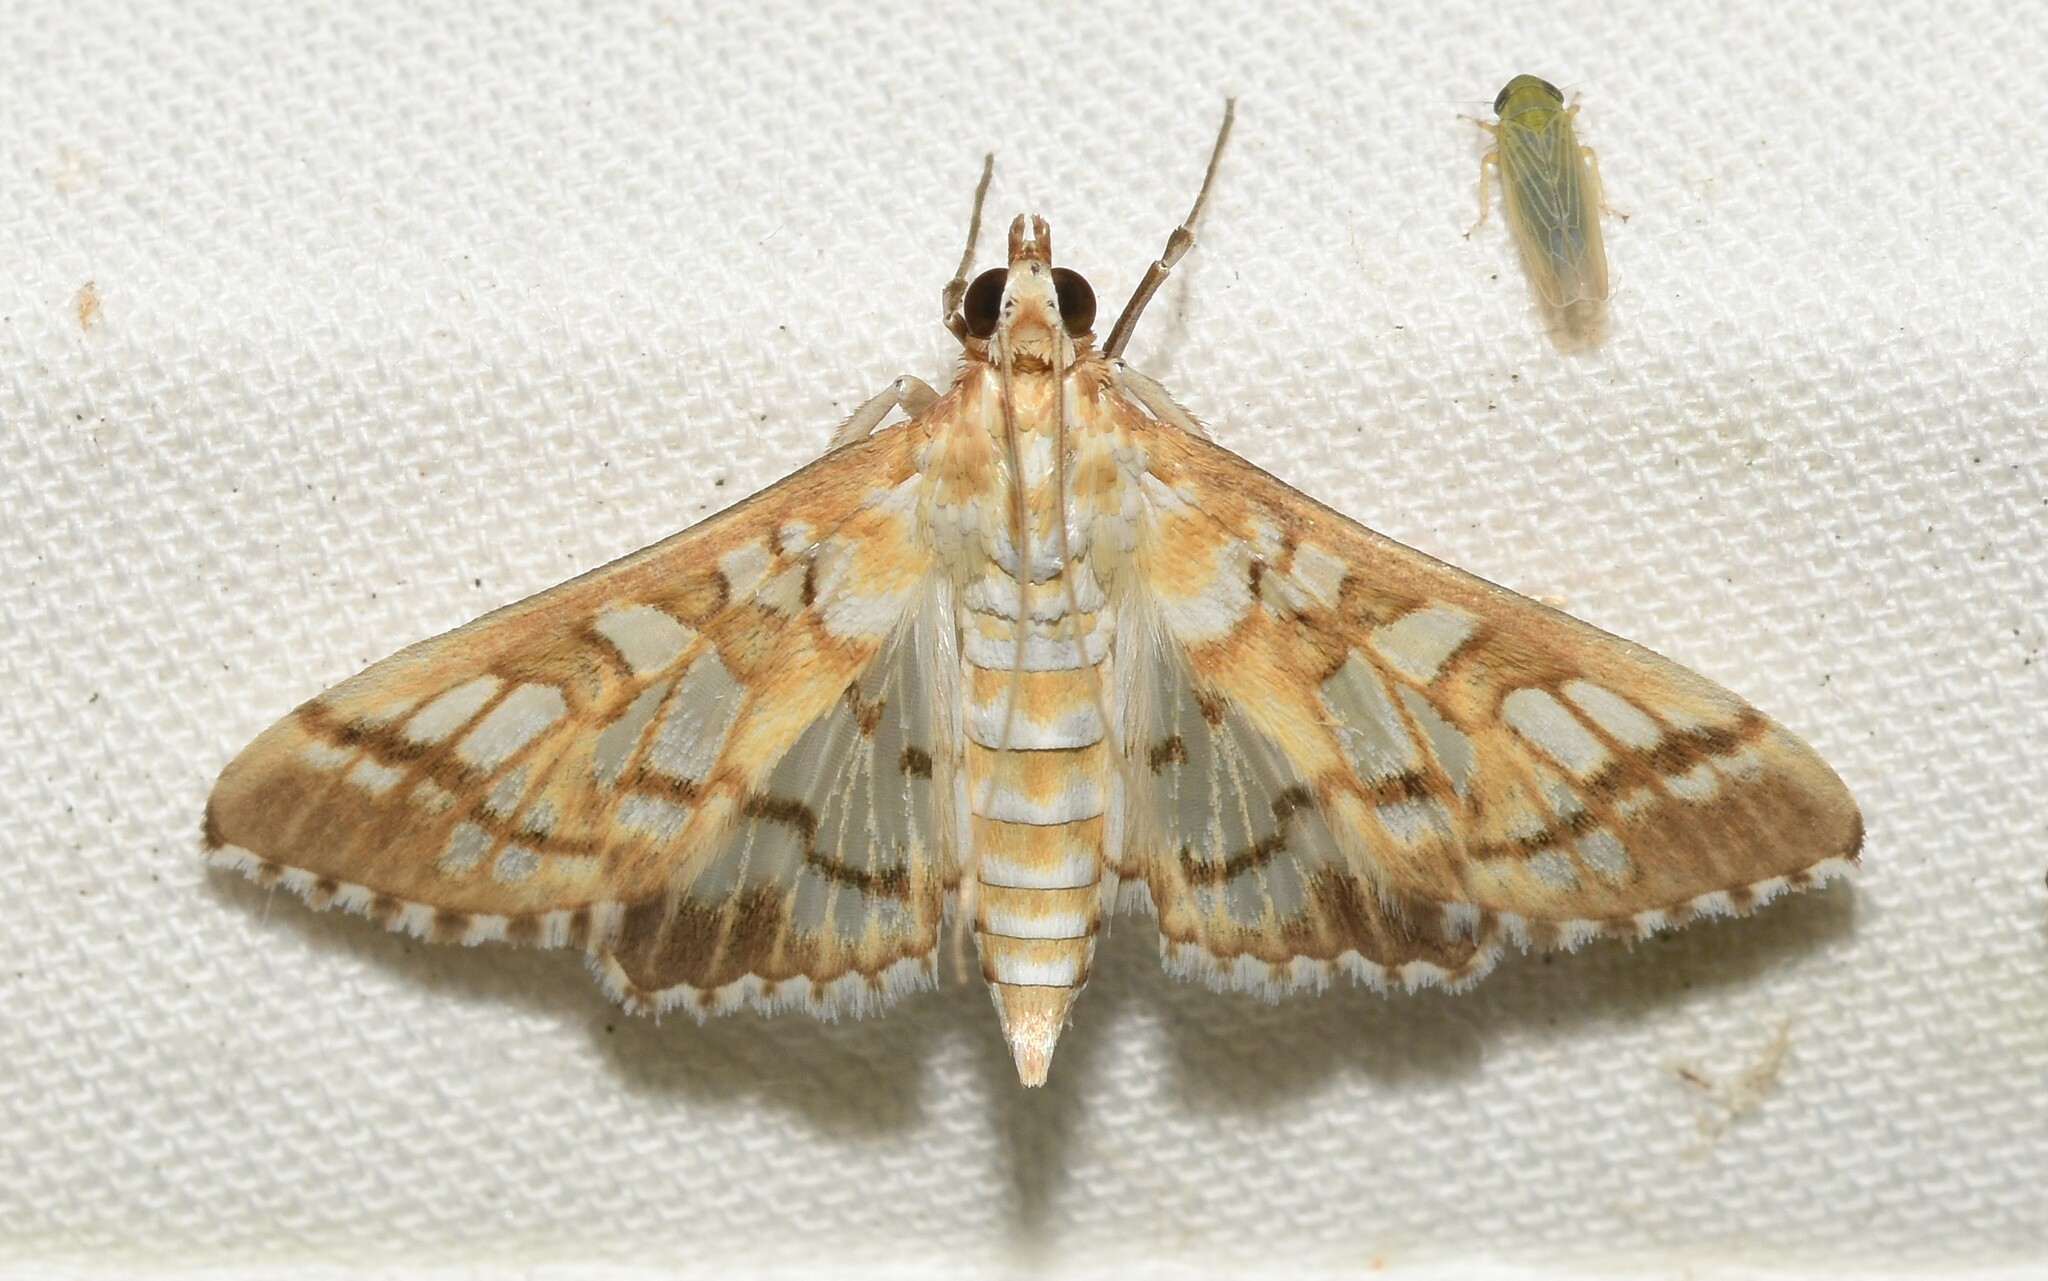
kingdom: Animalia
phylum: Arthropoda
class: Insecta
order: Lepidoptera
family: Crambidae
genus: Epipagis
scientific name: Epipagis fenestralis
